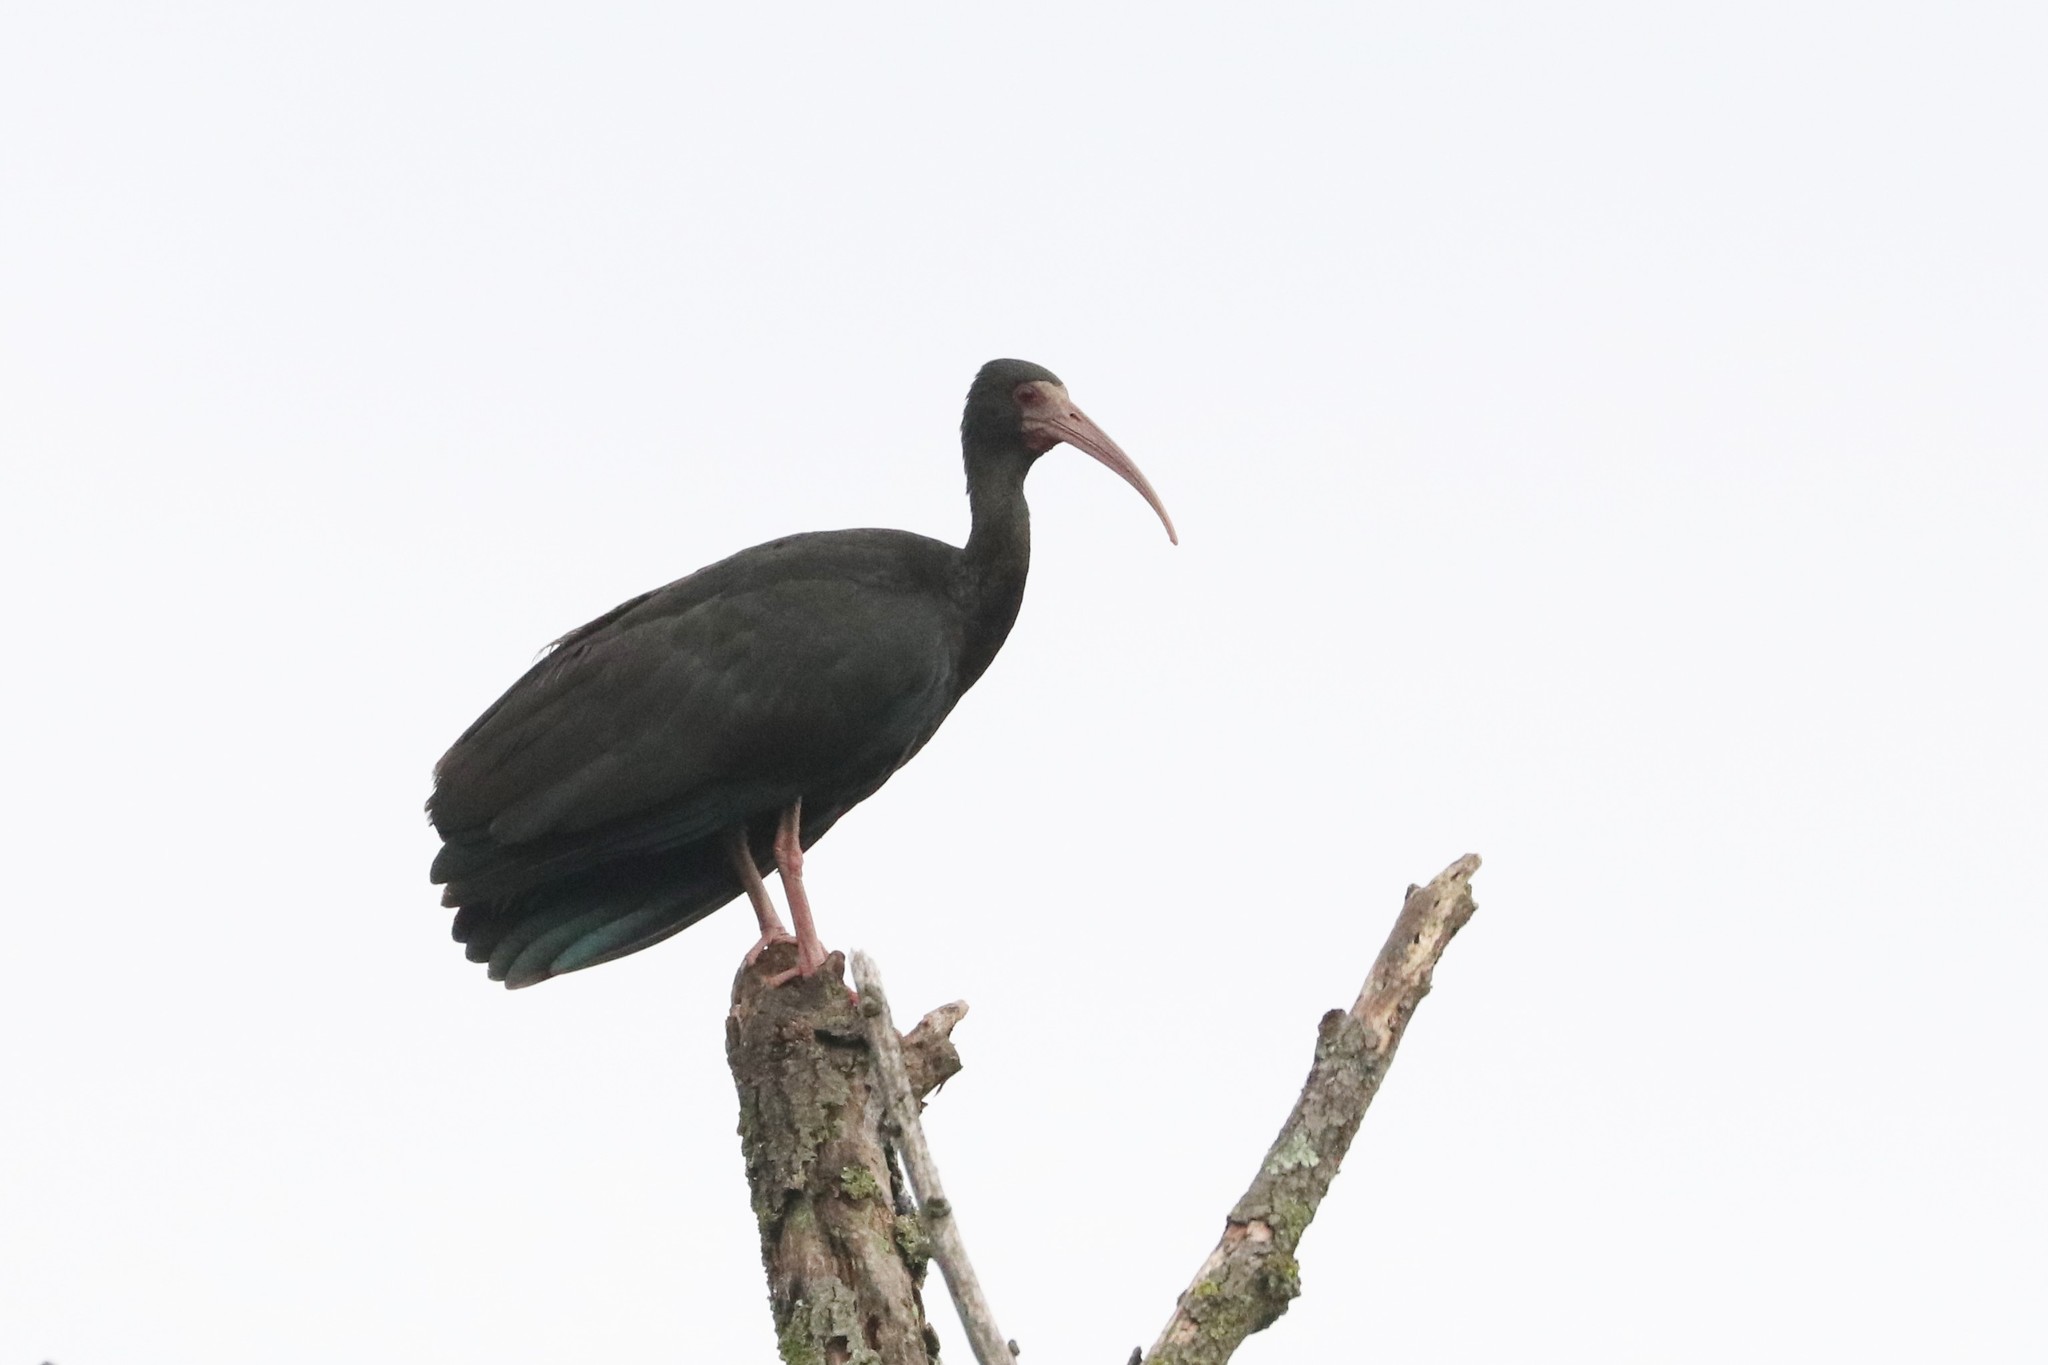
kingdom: Animalia
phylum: Chordata
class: Aves
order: Pelecaniformes
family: Threskiornithidae
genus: Phimosus
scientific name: Phimosus infuscatus
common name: Bare-faced ibis
